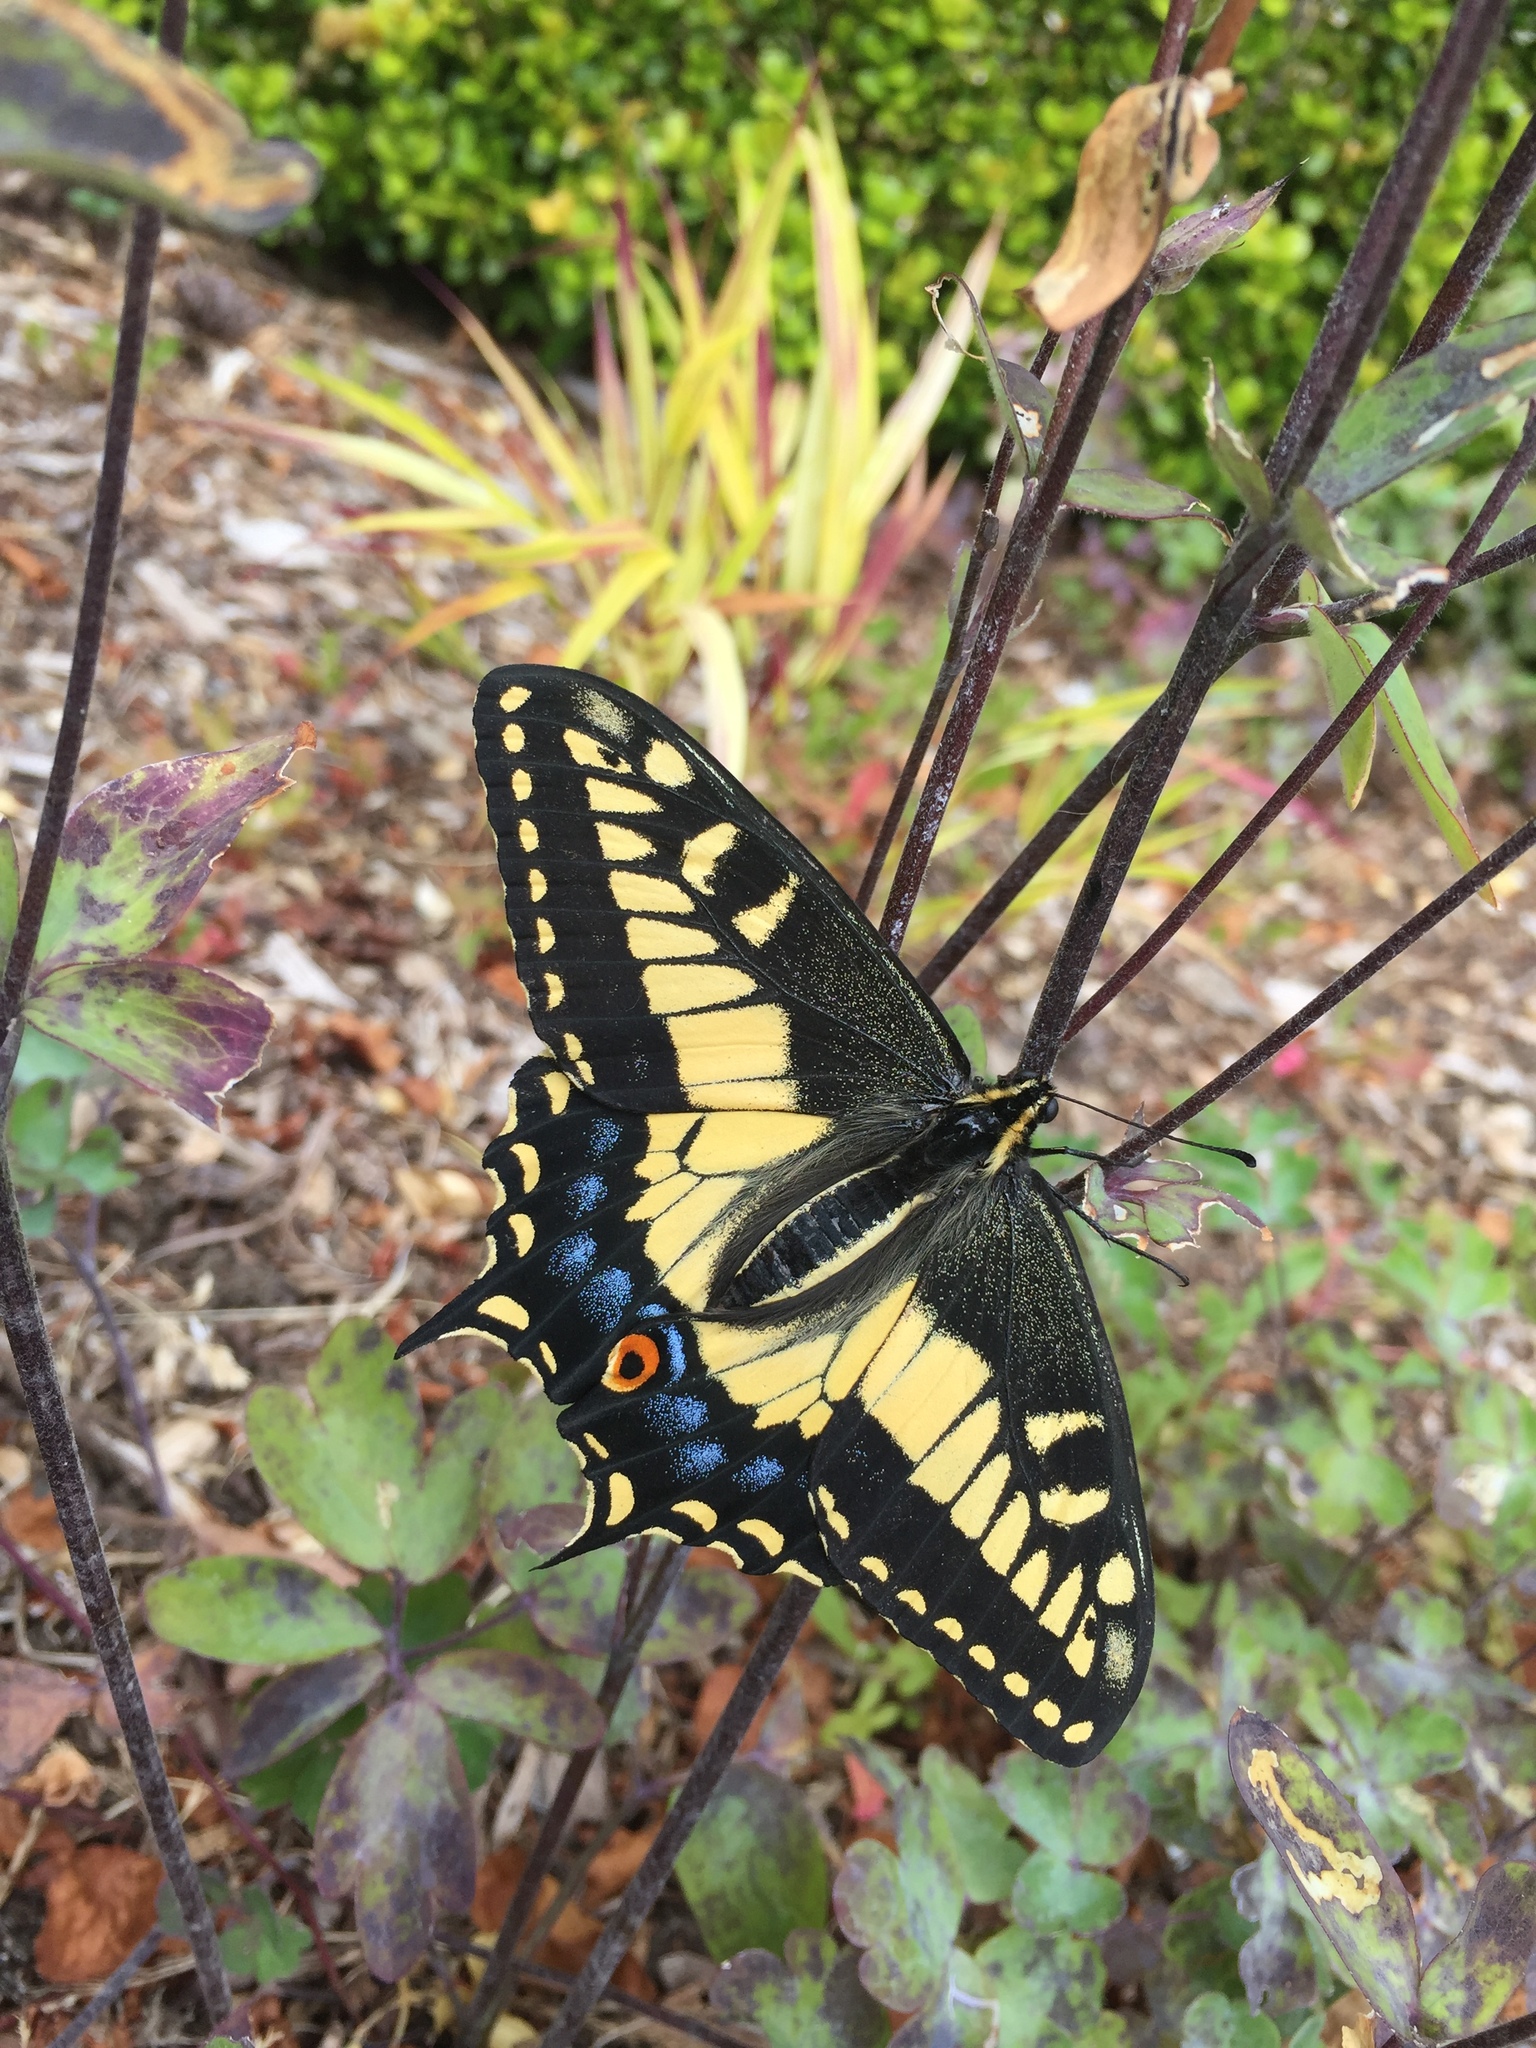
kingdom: Animalia
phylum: Arthropoda
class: Insecta
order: Lepidoptera
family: Papilionidae
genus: Papilio
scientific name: Papilio zelicaon
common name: Anise swallowtail
